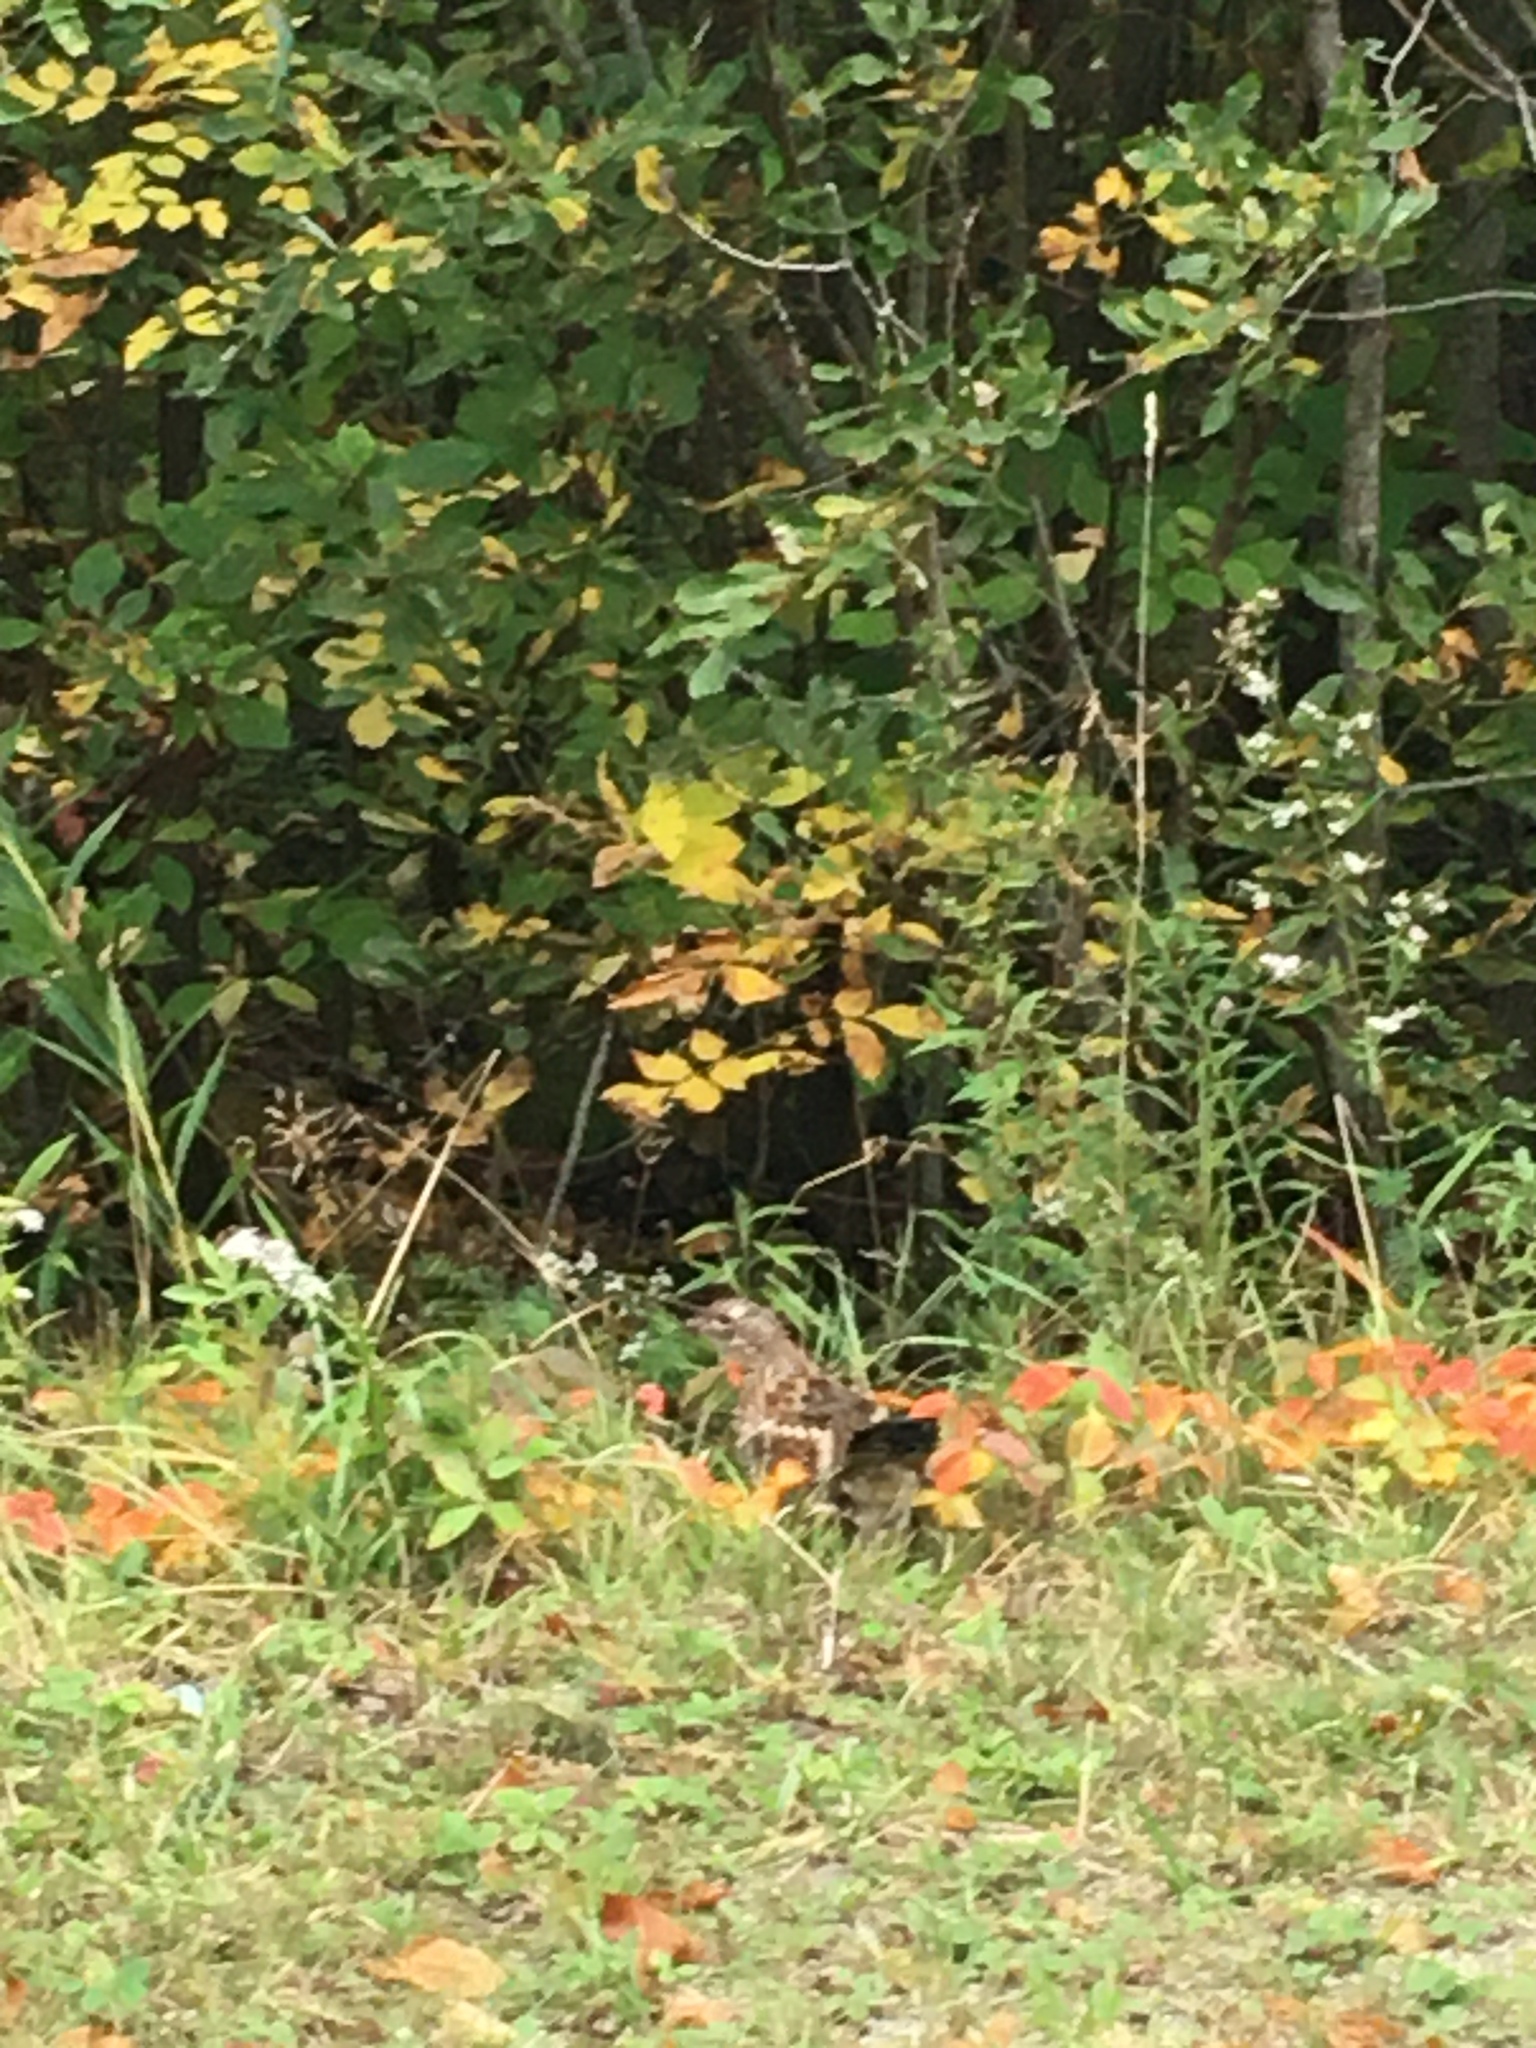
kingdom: Animalia
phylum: Chordata
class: Aves
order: Galliformes
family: Phasianidae
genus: Bonasa
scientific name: Bonasa umbellus
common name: Ruffed grouse
